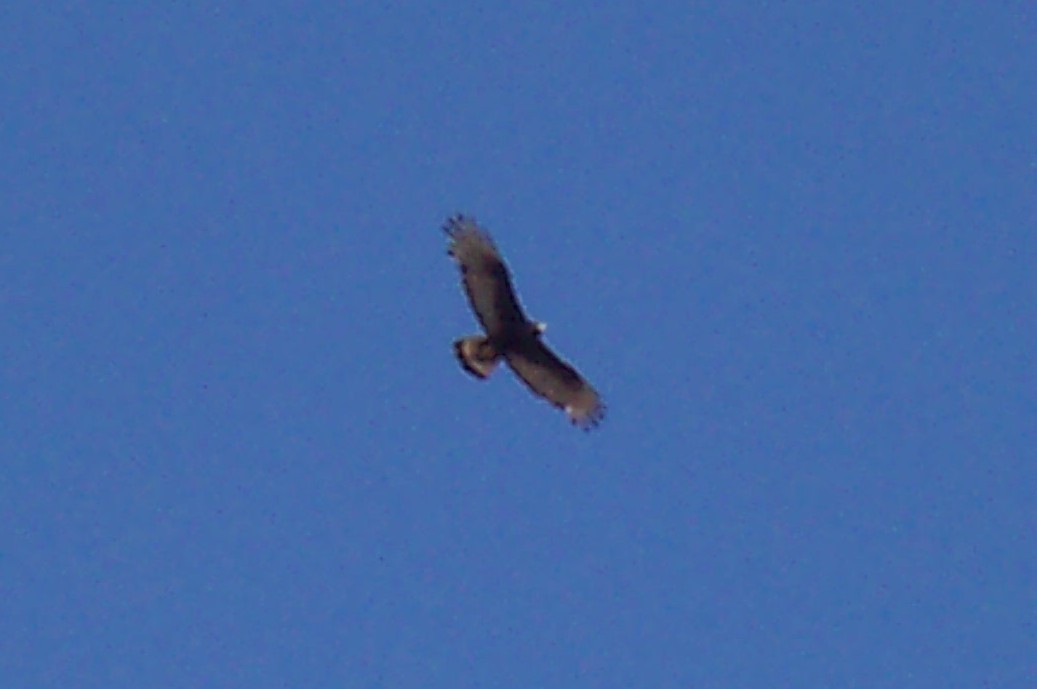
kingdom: Animalia
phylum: Chordata
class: Aves
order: Accipitriformes
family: Accipitridae
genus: Buteo
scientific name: Buteo albonotatus
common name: Zone-tailed hawk
